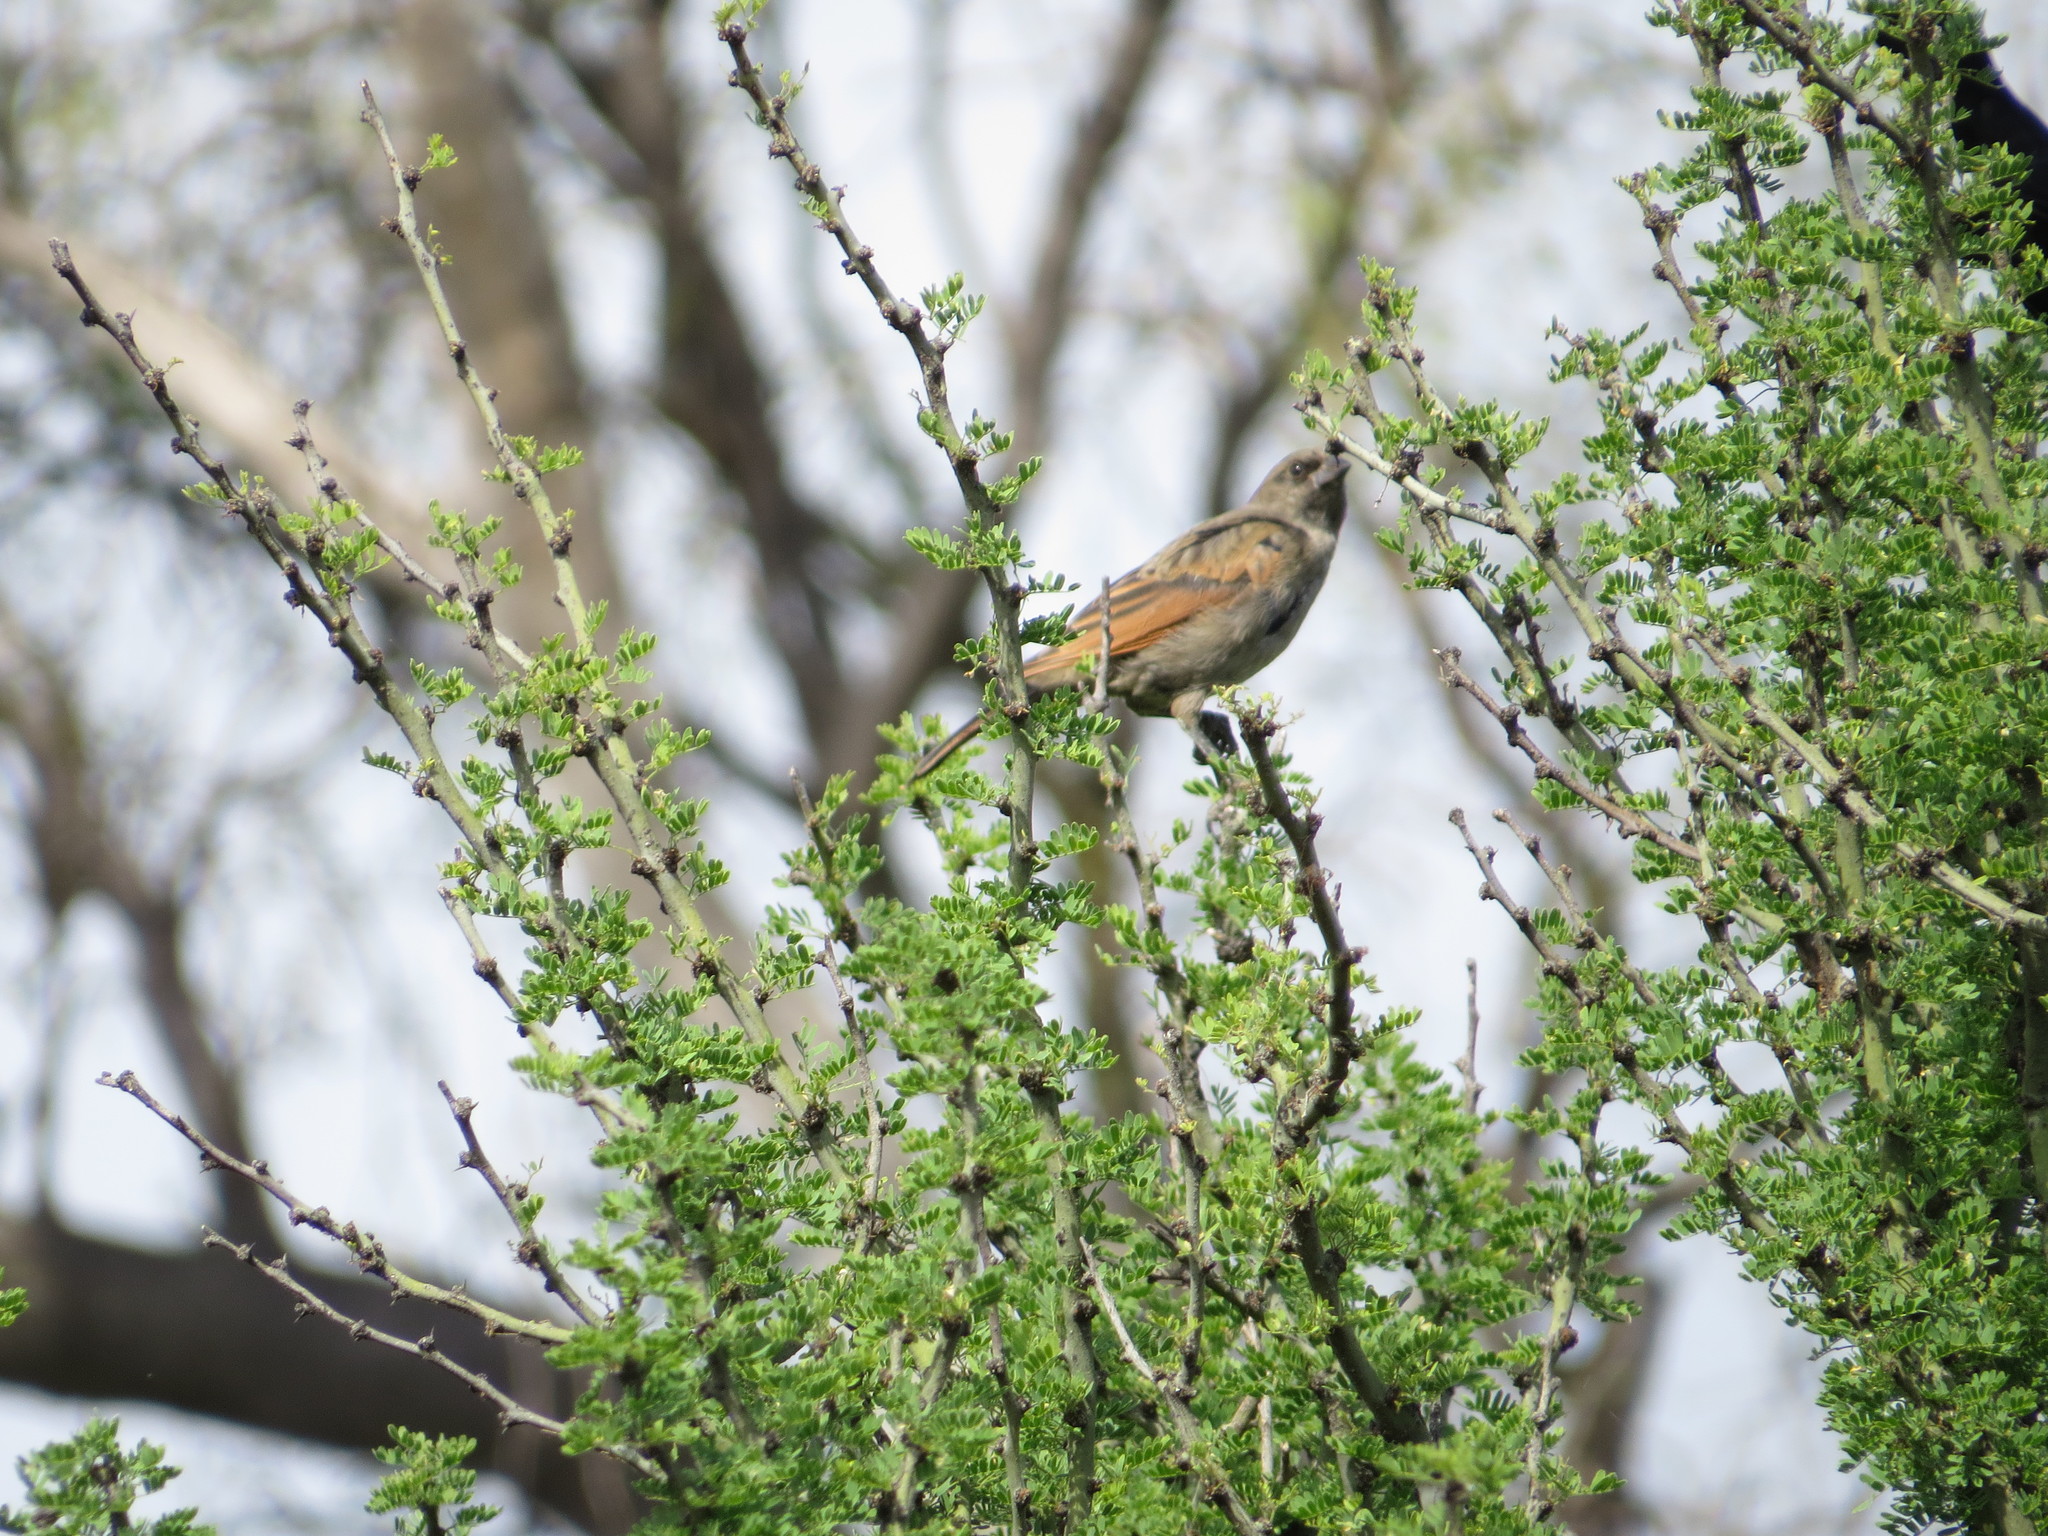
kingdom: Animalia
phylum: Chordata
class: Aves
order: Passeriformes
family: Icteridae
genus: Molothrus
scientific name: Molothrus rufoaxillaris
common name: Screaming cowbird
